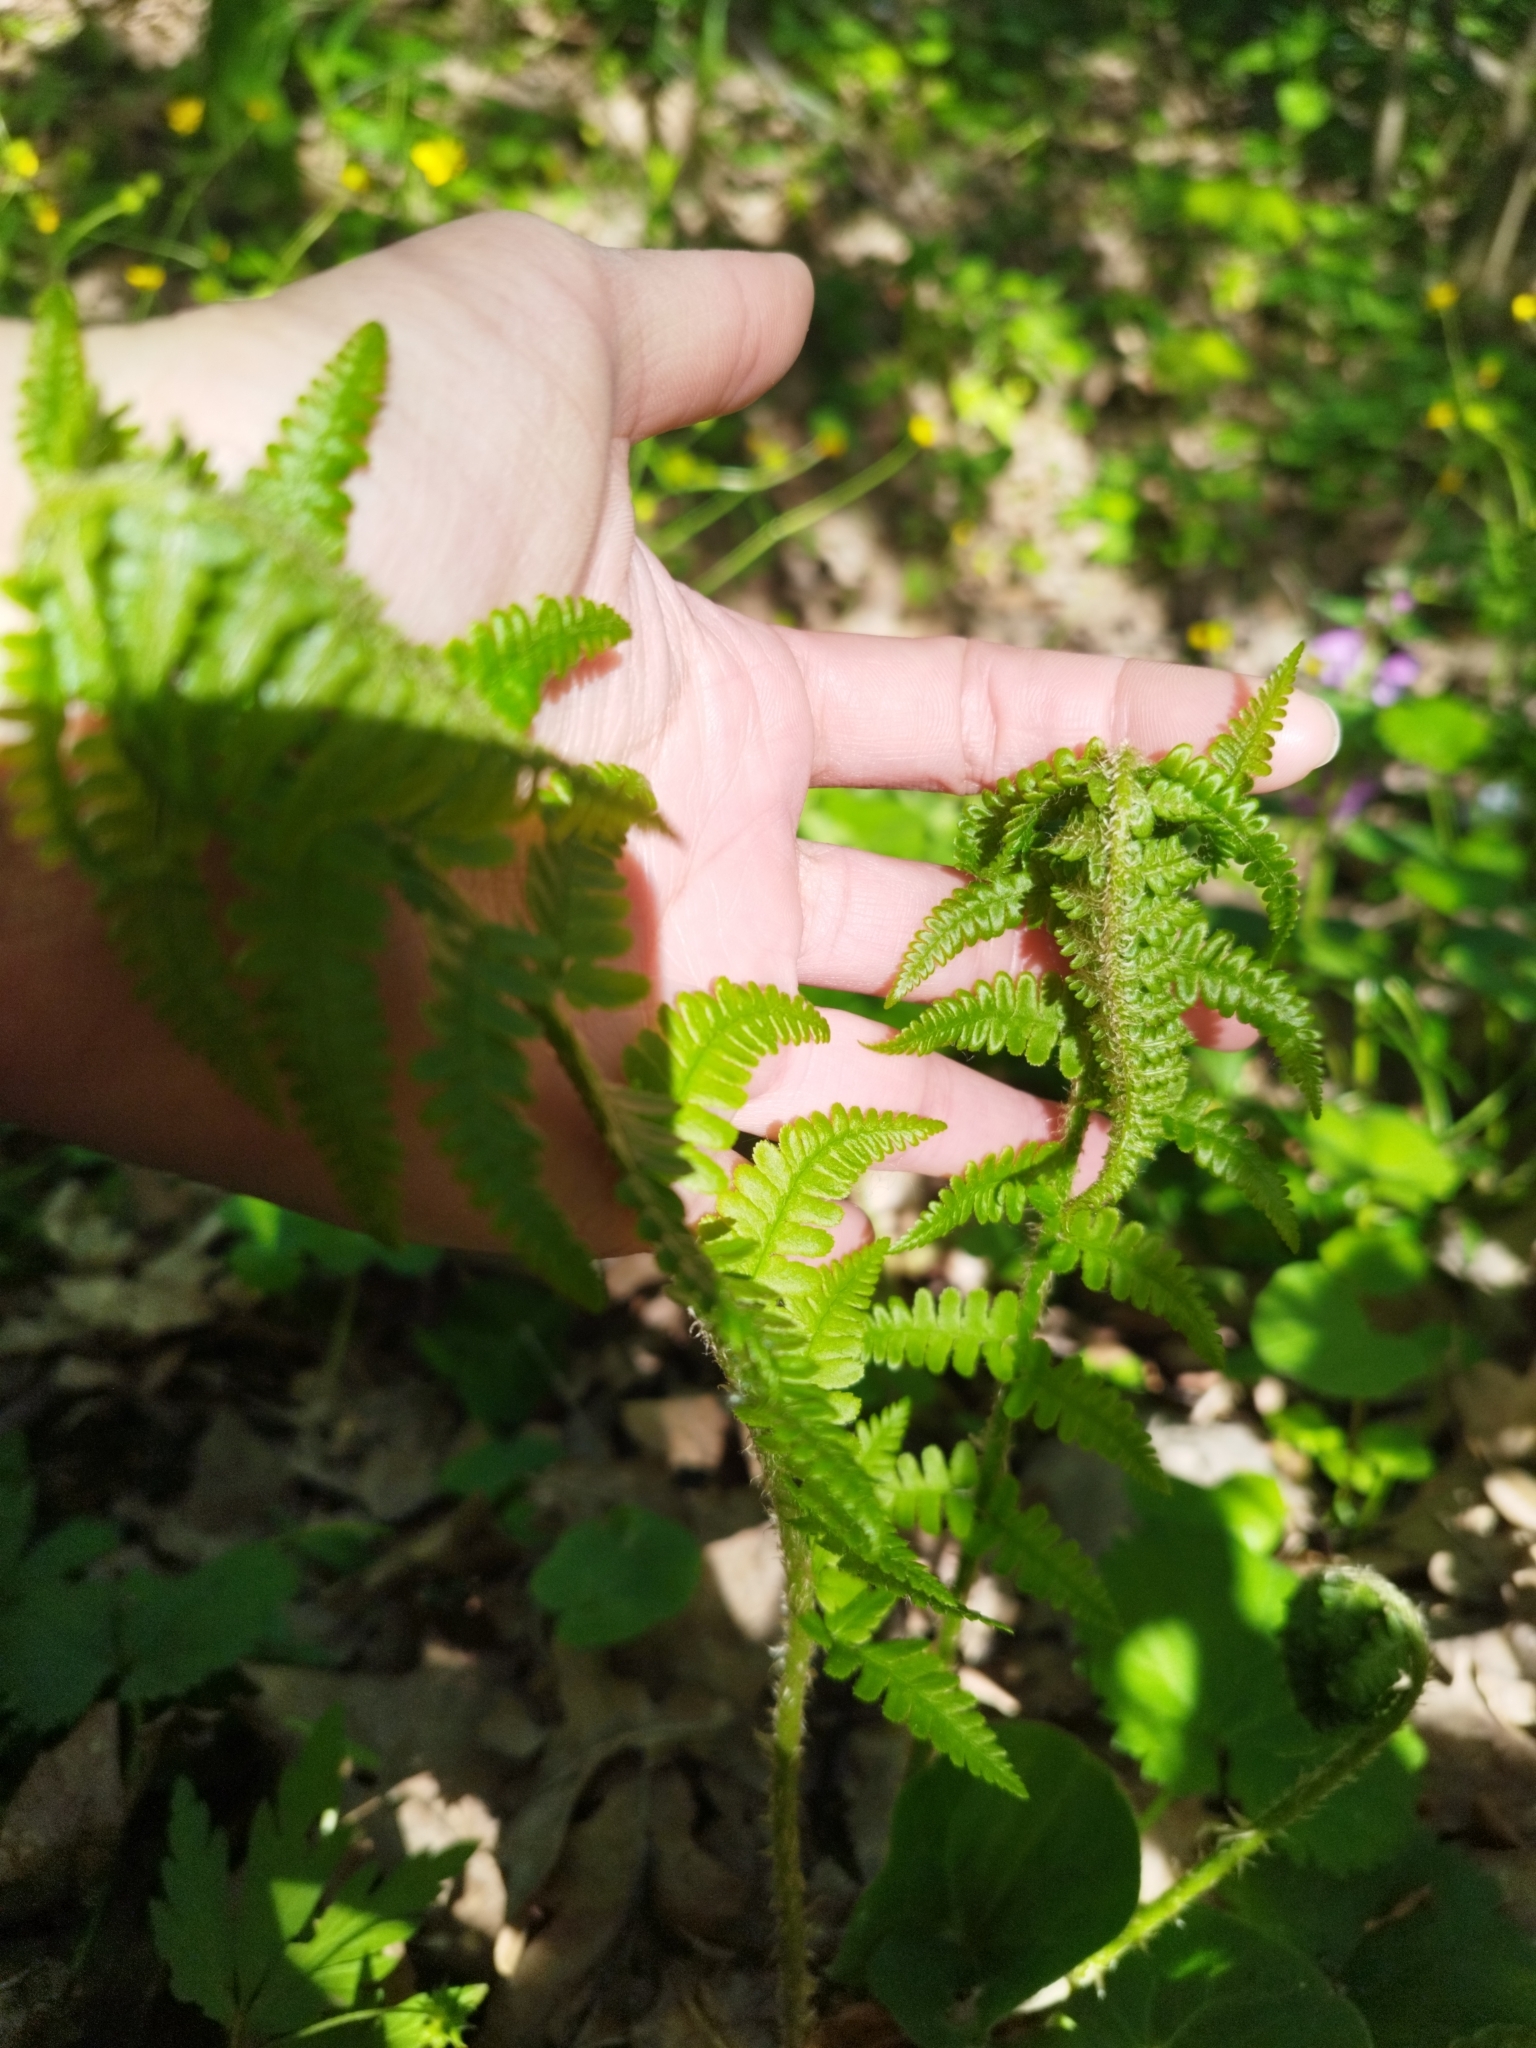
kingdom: Plantae
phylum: Tracheophyta
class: Polypodiopsida
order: Polypodiales
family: Dryopteridaceae
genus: Dryopteris
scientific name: Dryopteris filix-mas
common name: Male fern
